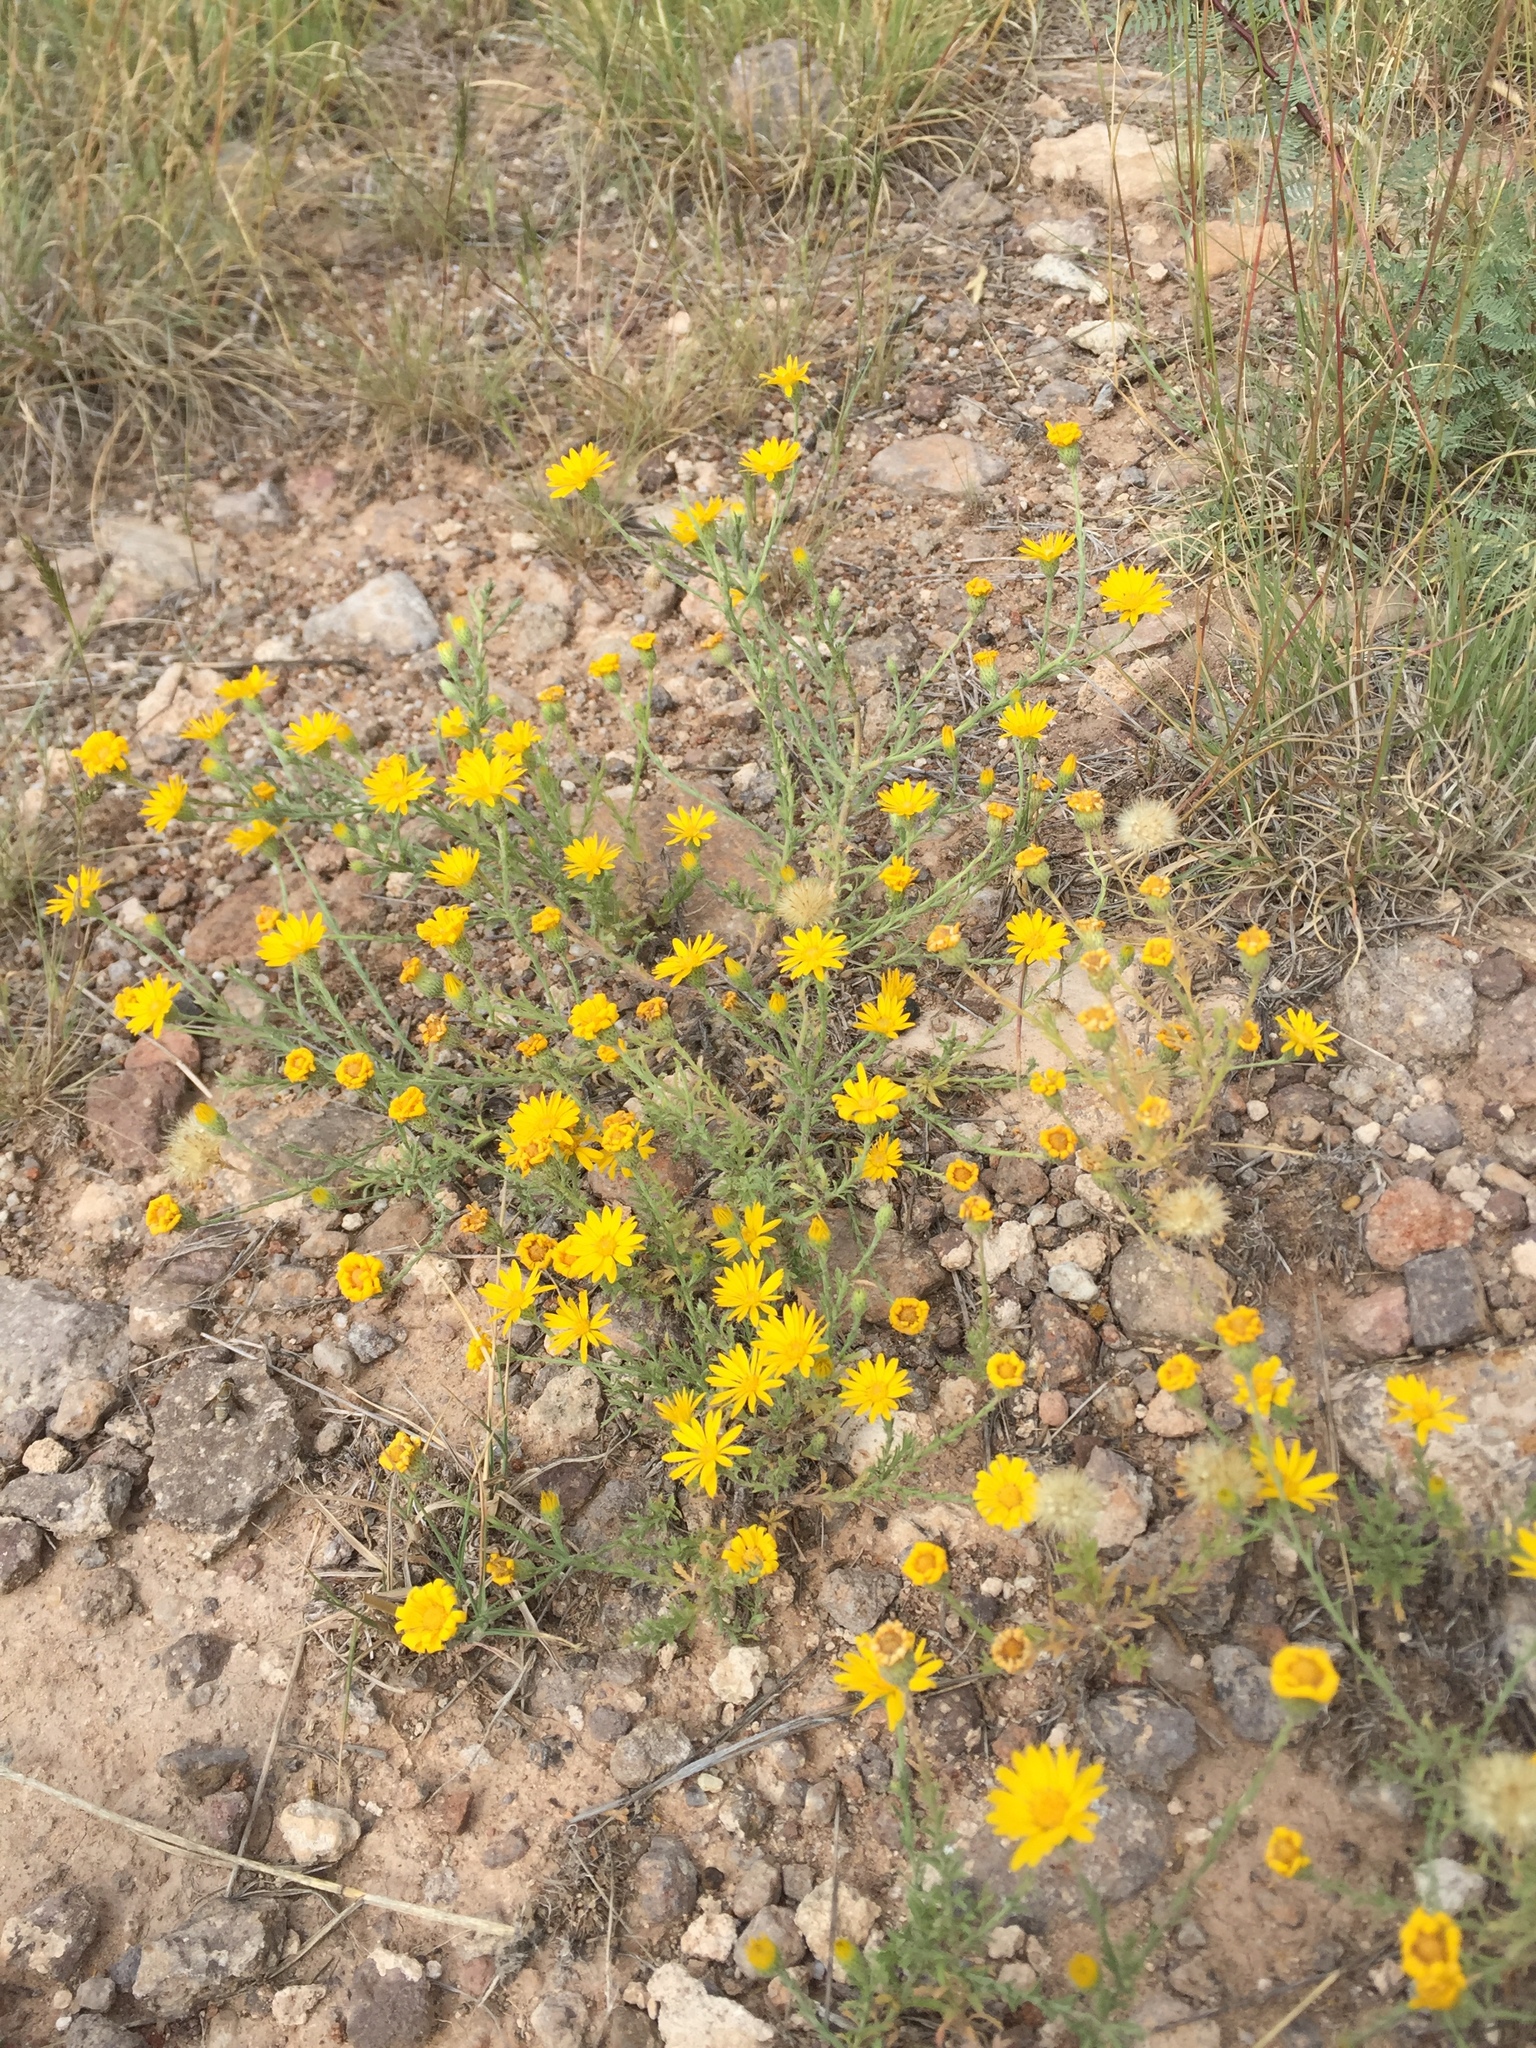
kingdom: Plantae
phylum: Tracheophyta
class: Magnoliopsida
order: Asterales
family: Asteraceae
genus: Picradeniopsis
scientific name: Picradeniopsis absinthifolia
